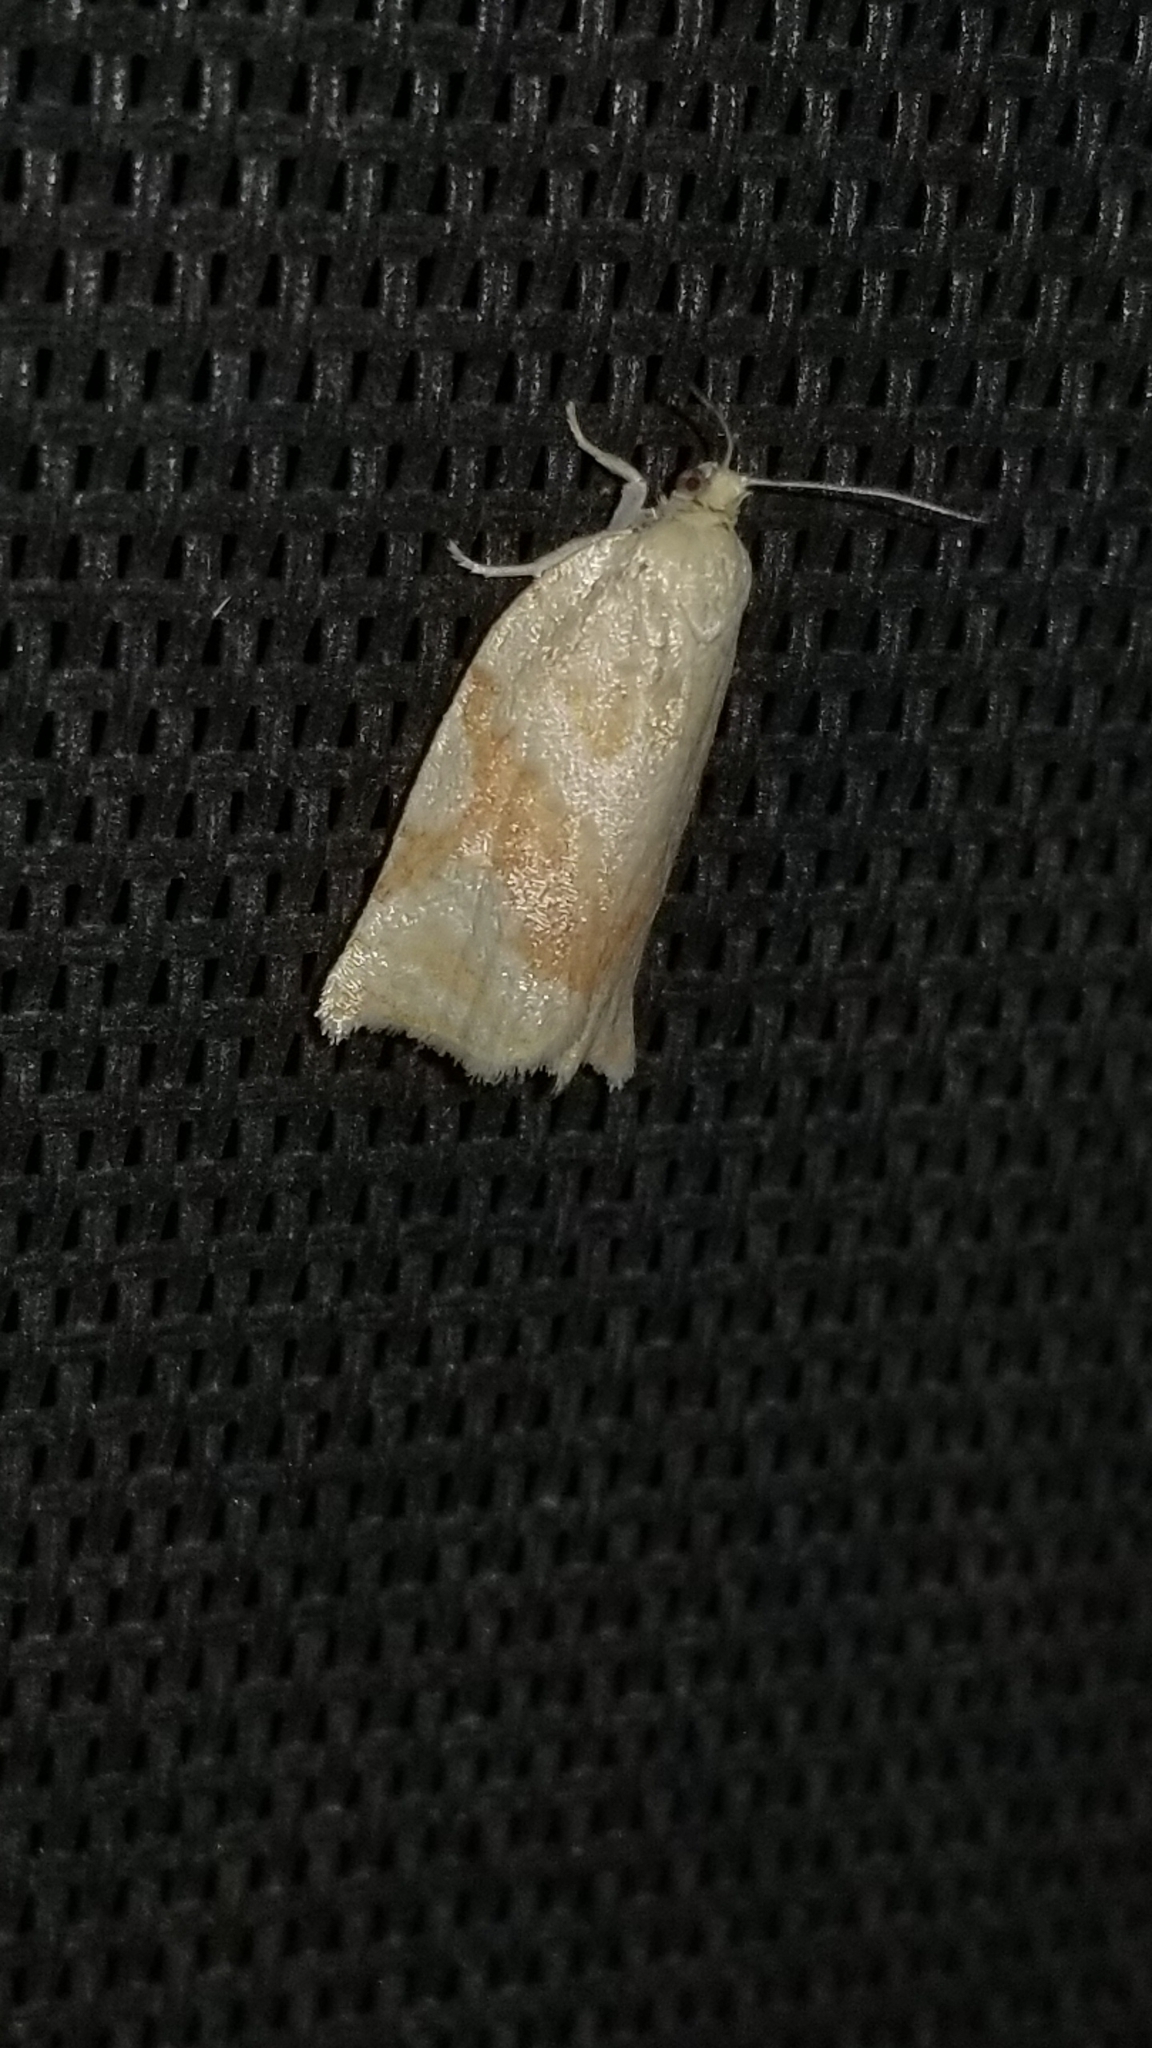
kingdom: Animalia
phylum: Arthropoda
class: Insecta
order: Lepidoptera
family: Tortricidae
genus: Archips
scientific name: Archips semiferanus
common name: Oak leafroller
